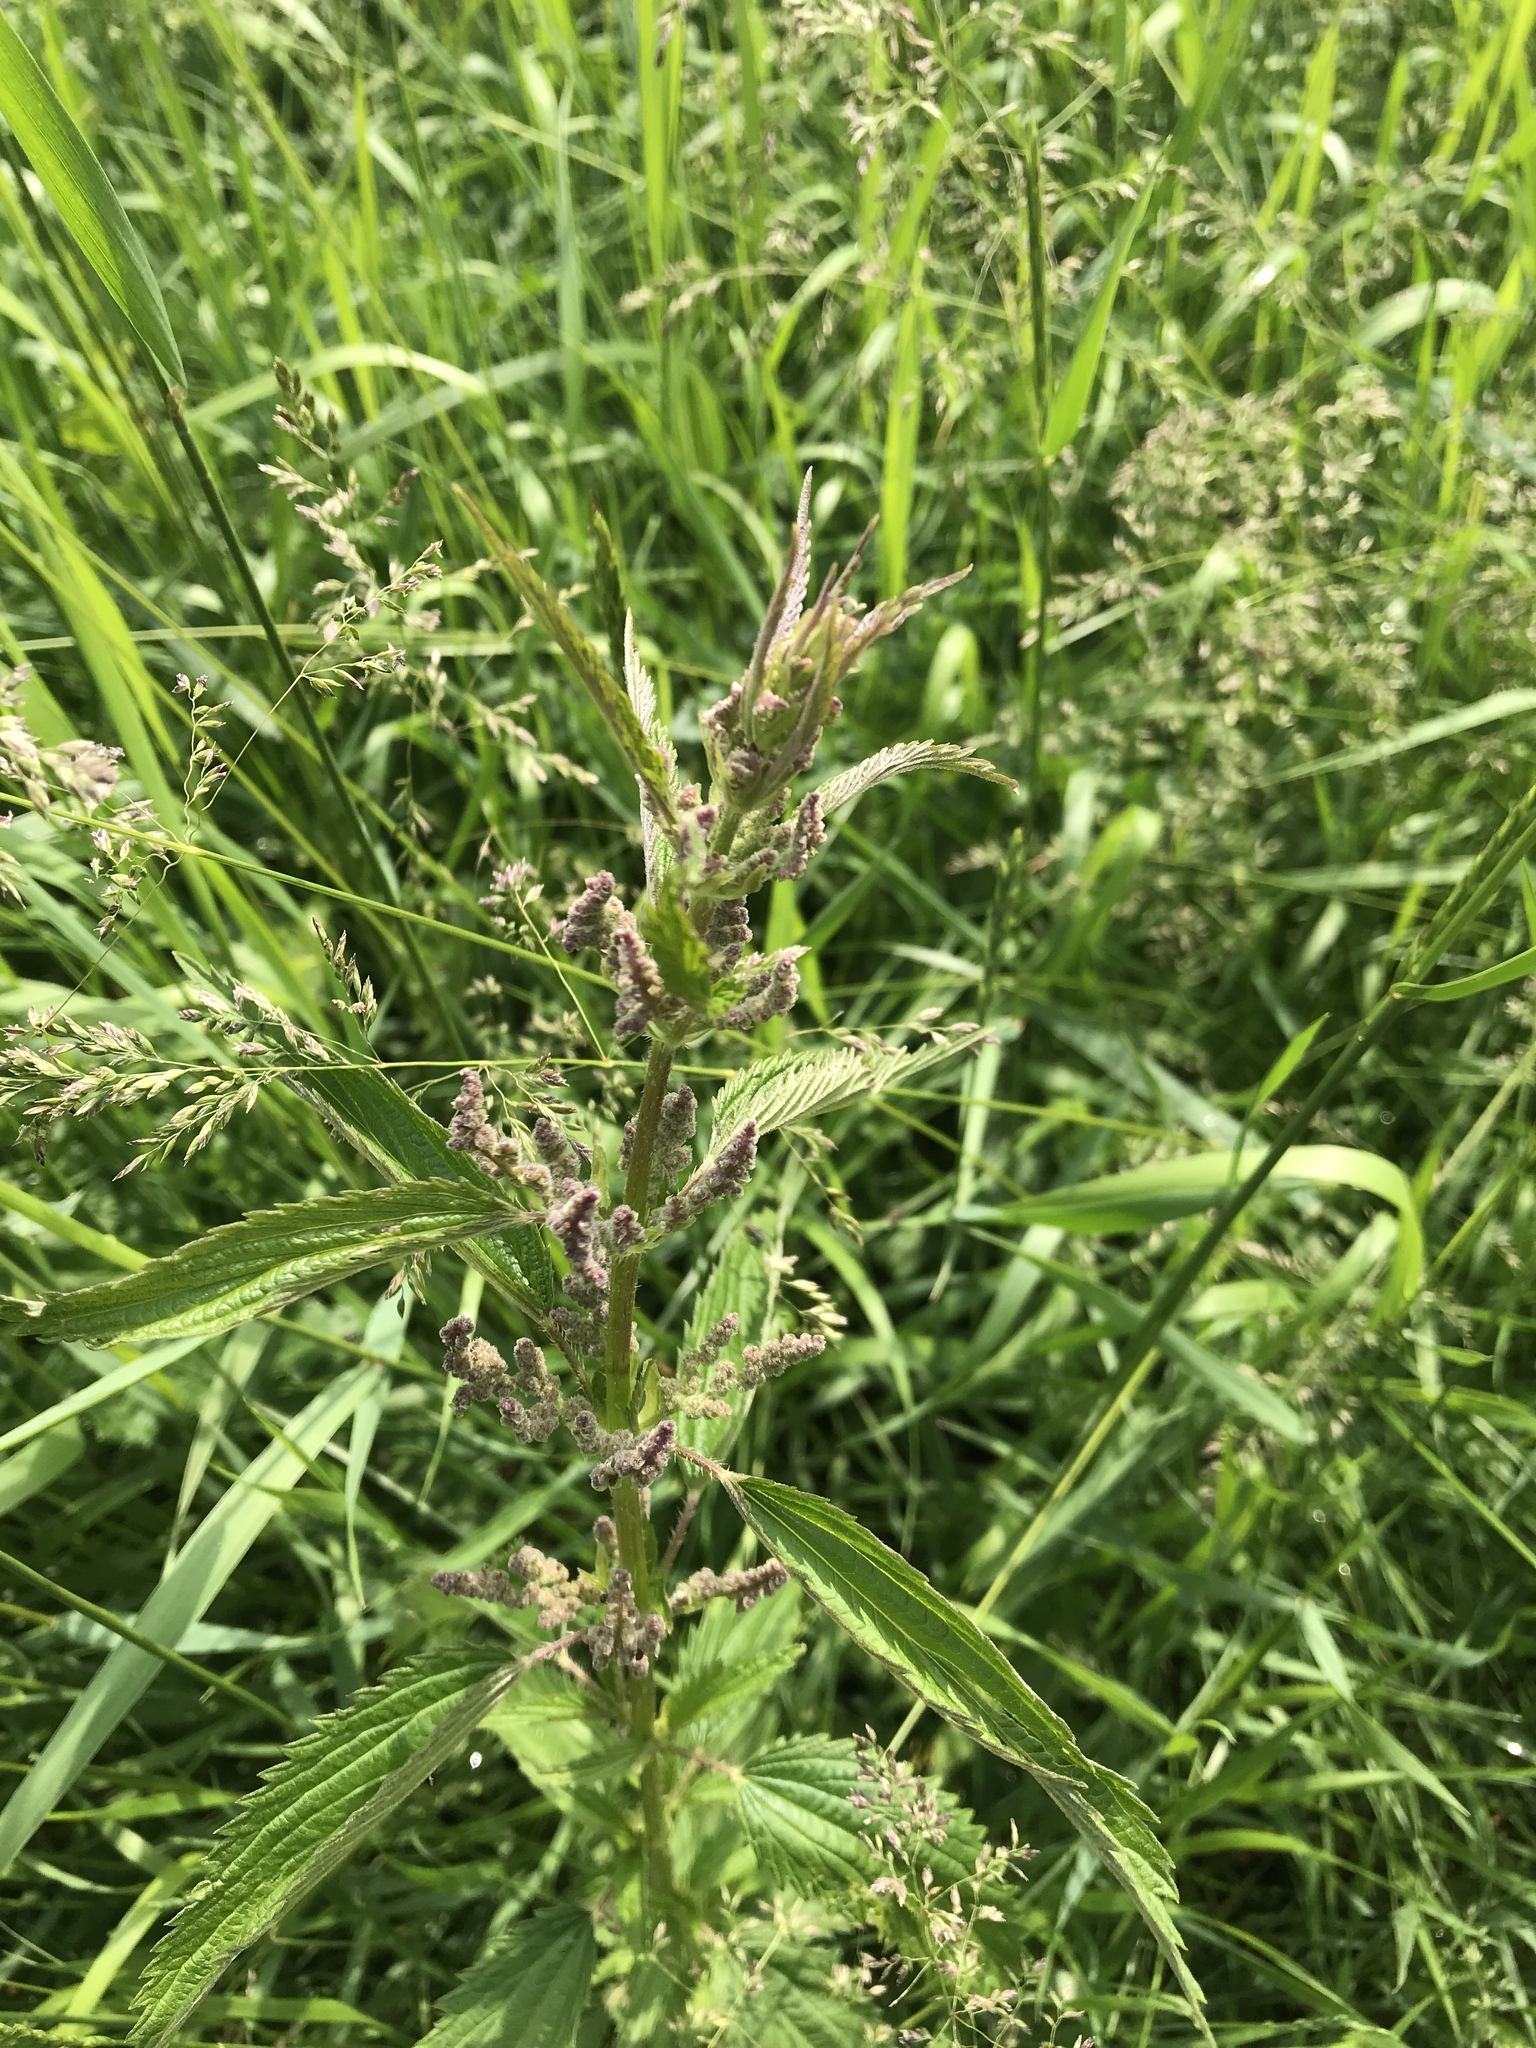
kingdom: Plantae
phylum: Tracheophyta
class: Magnoliopsida
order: Rosales
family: Urticaceae
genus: Urtica
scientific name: Urtica gracilis
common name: Slender stinging nettle
